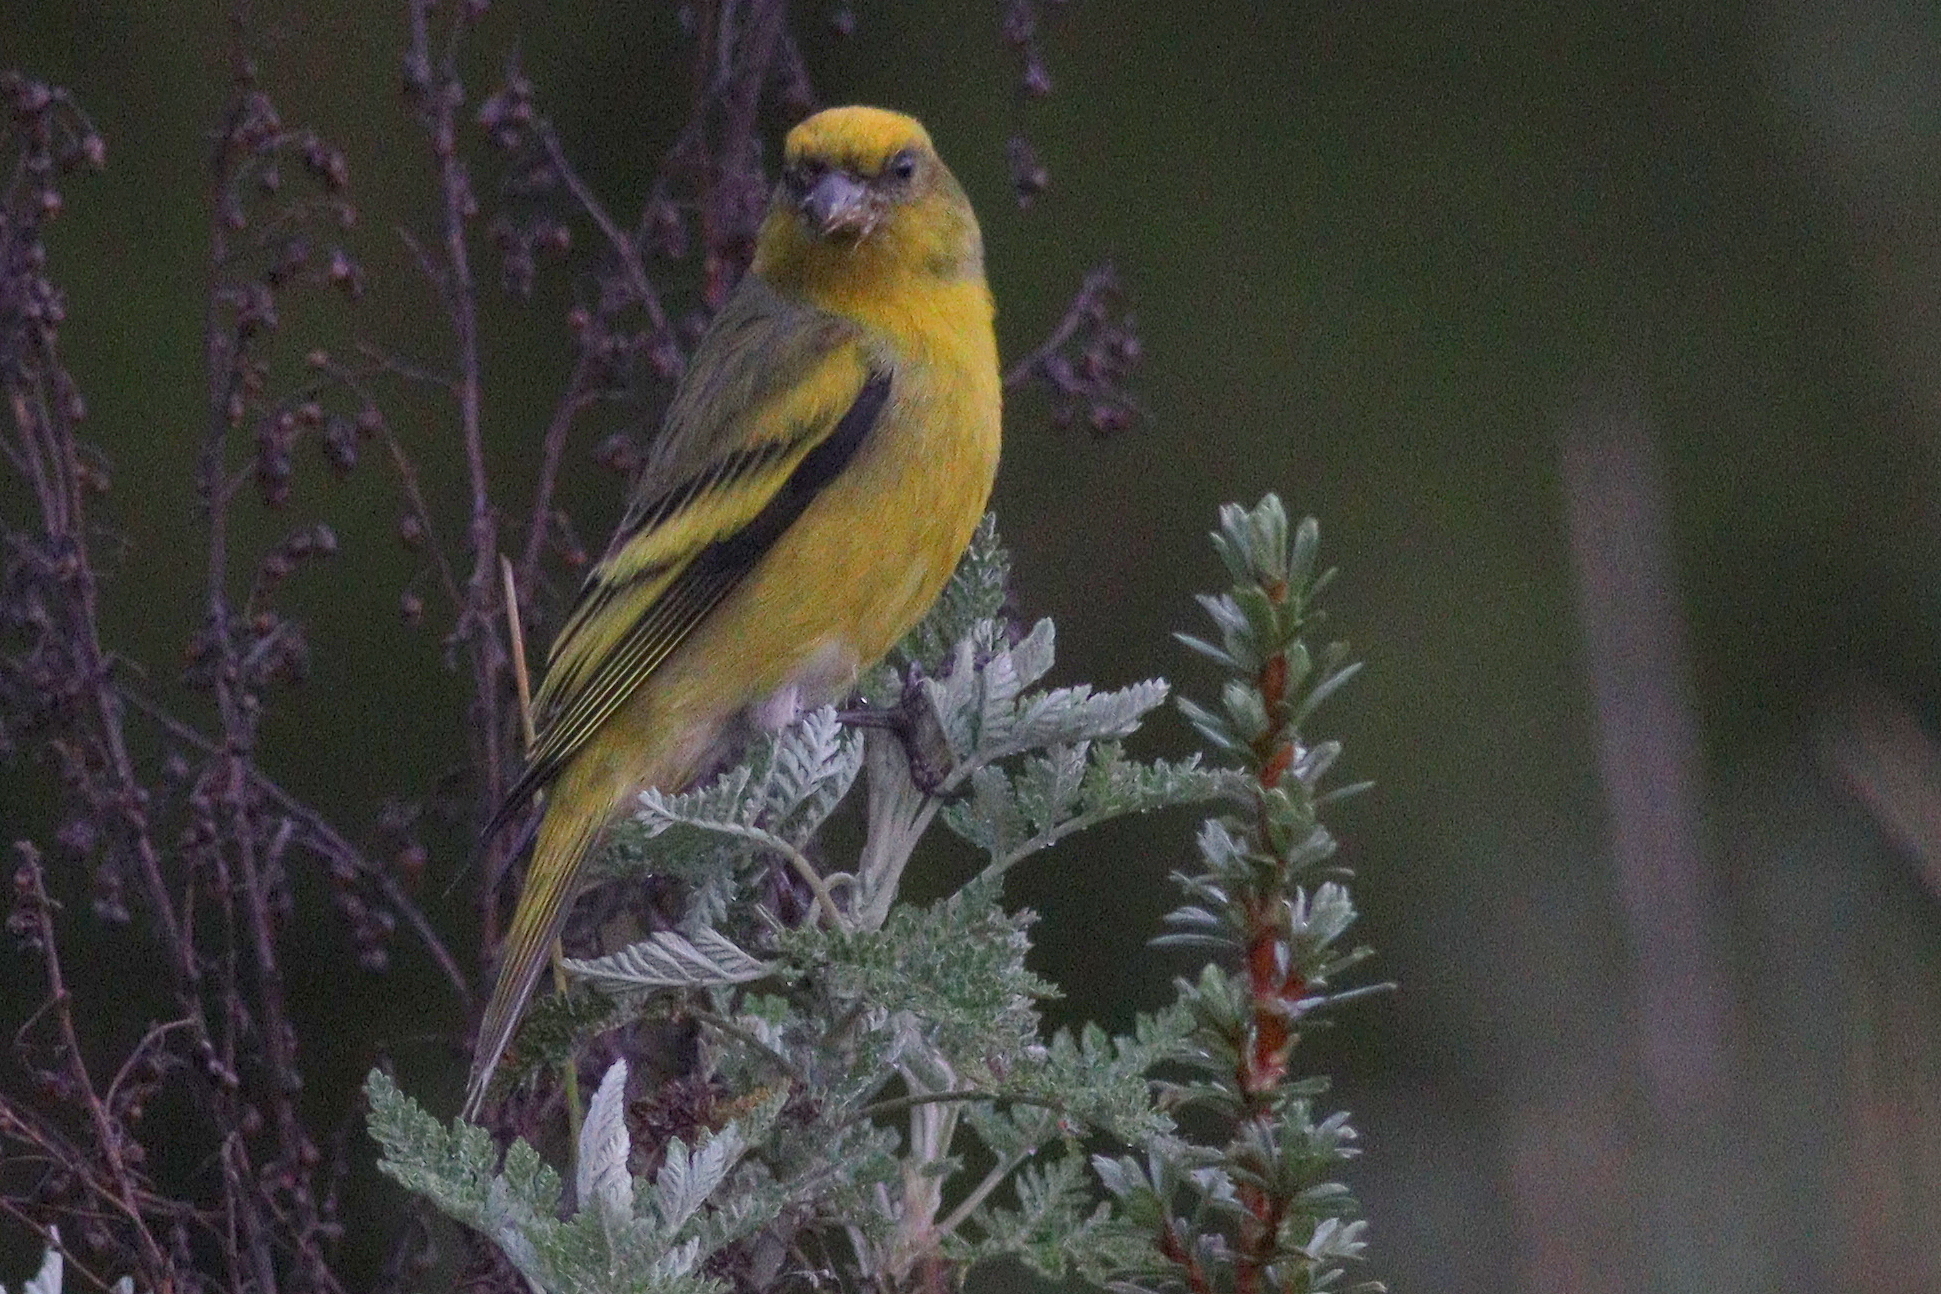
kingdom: Animalia
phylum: Chordata
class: Aves
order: Passeriformes
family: Fringillidae
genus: Serinus
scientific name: Serinus flavivertex
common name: Yellow-crowned canary
